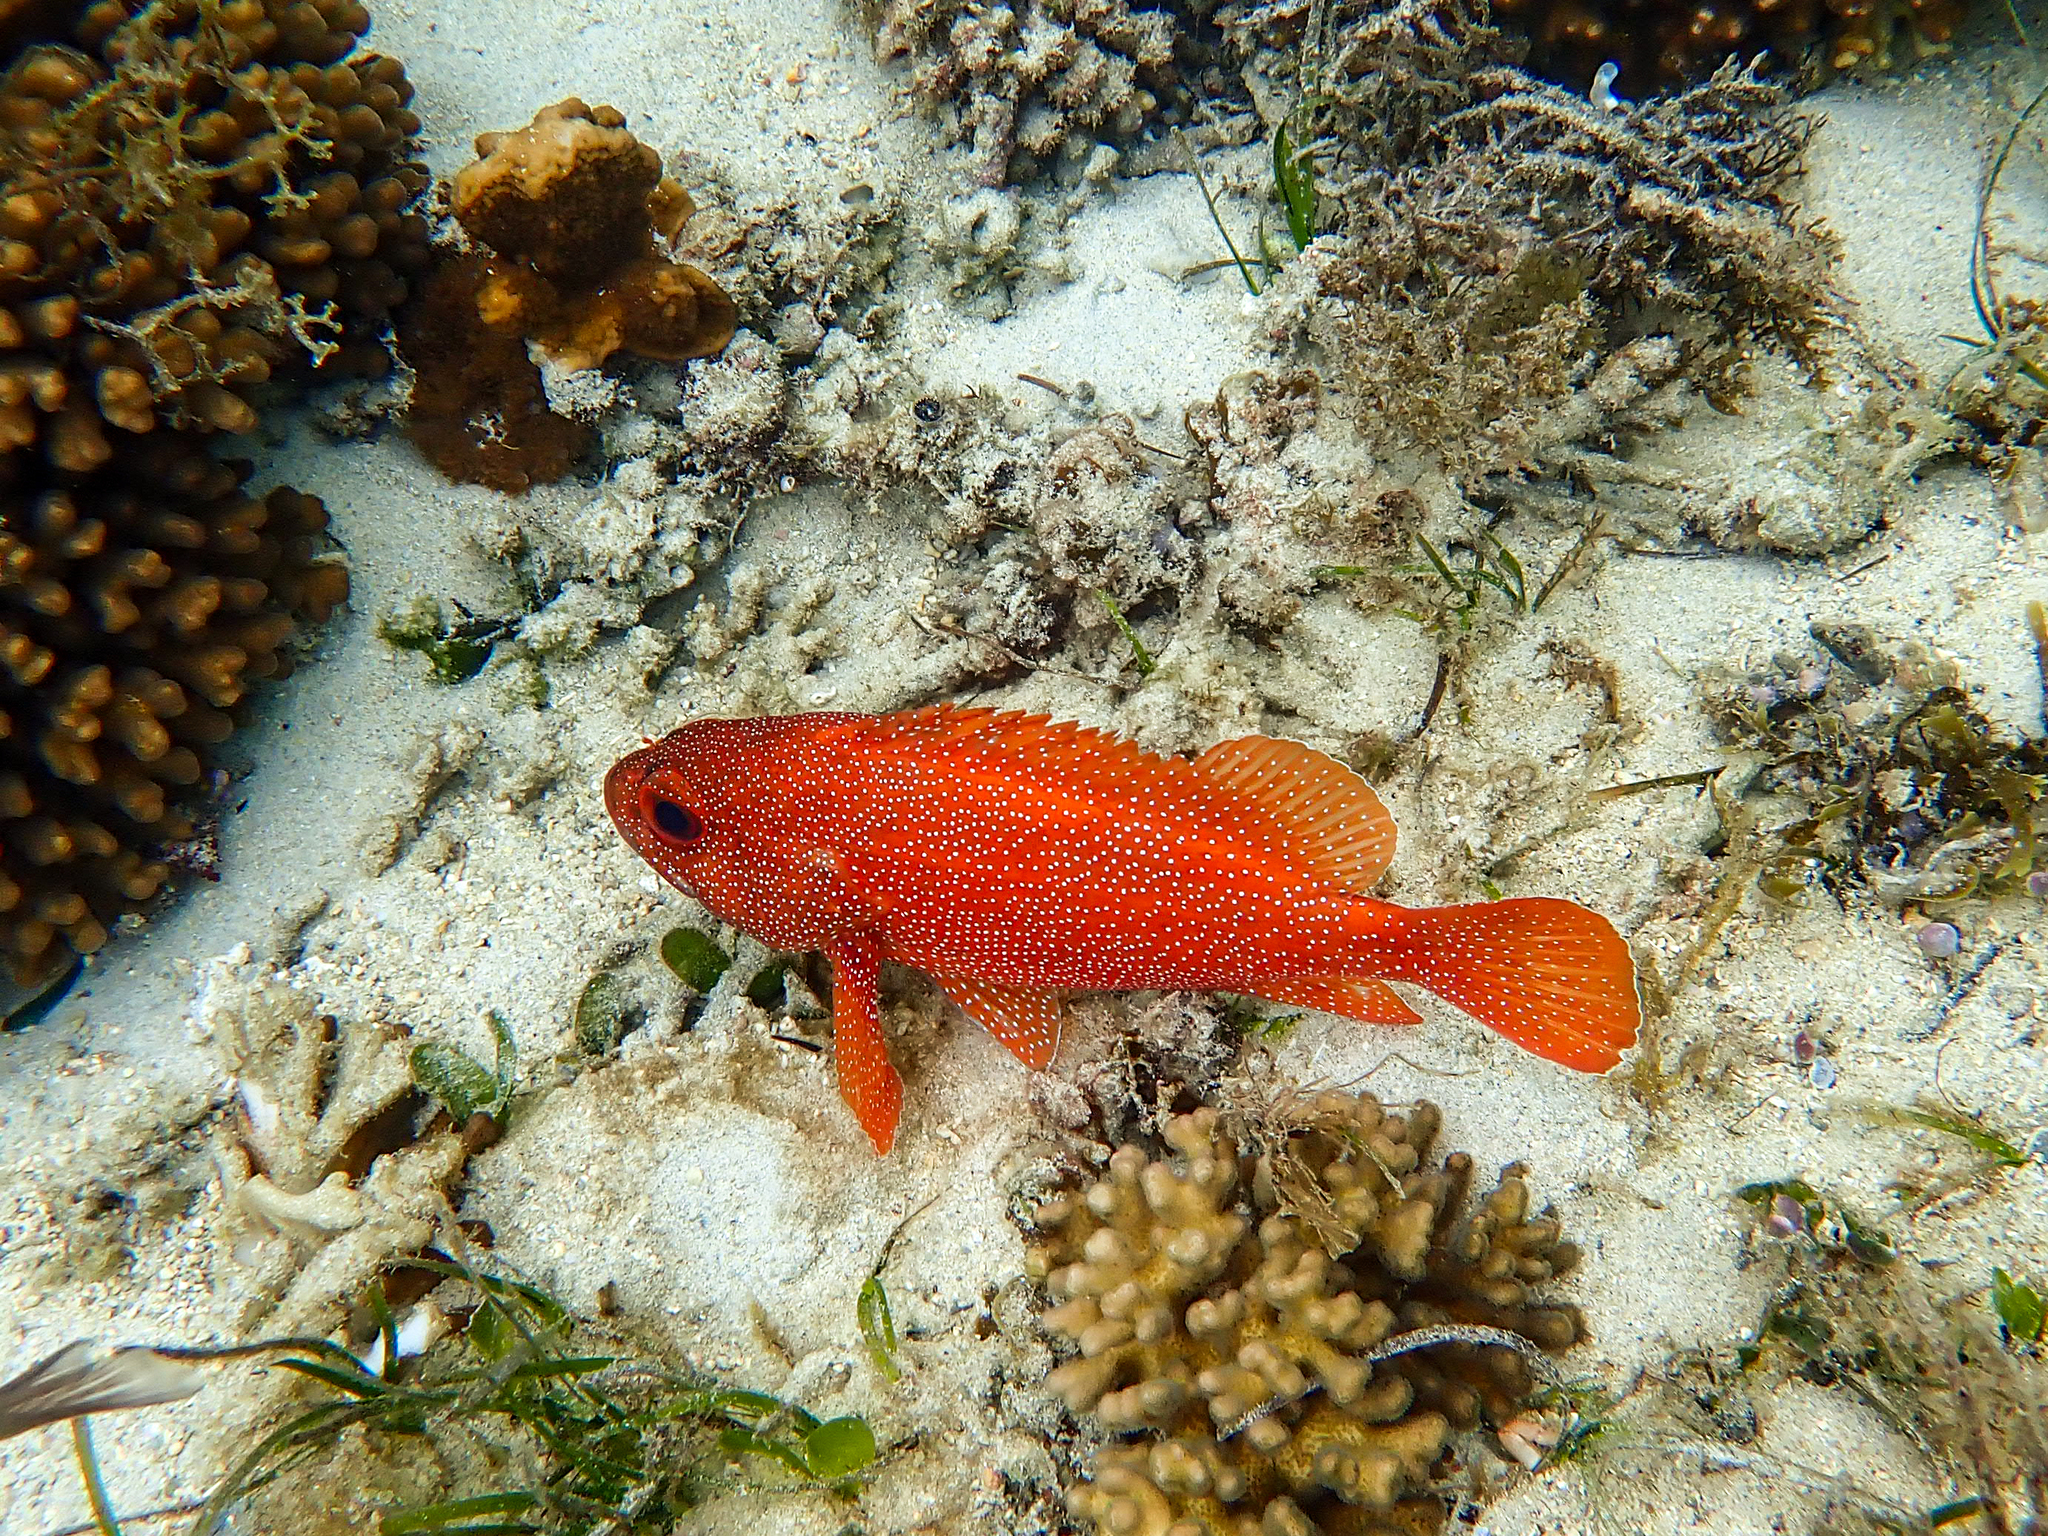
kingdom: Animalia
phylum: Chordata
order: Perciformes
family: Serranidae
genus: Trachypoma
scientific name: Trachypoma macracanthus
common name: Toadstool grouper
